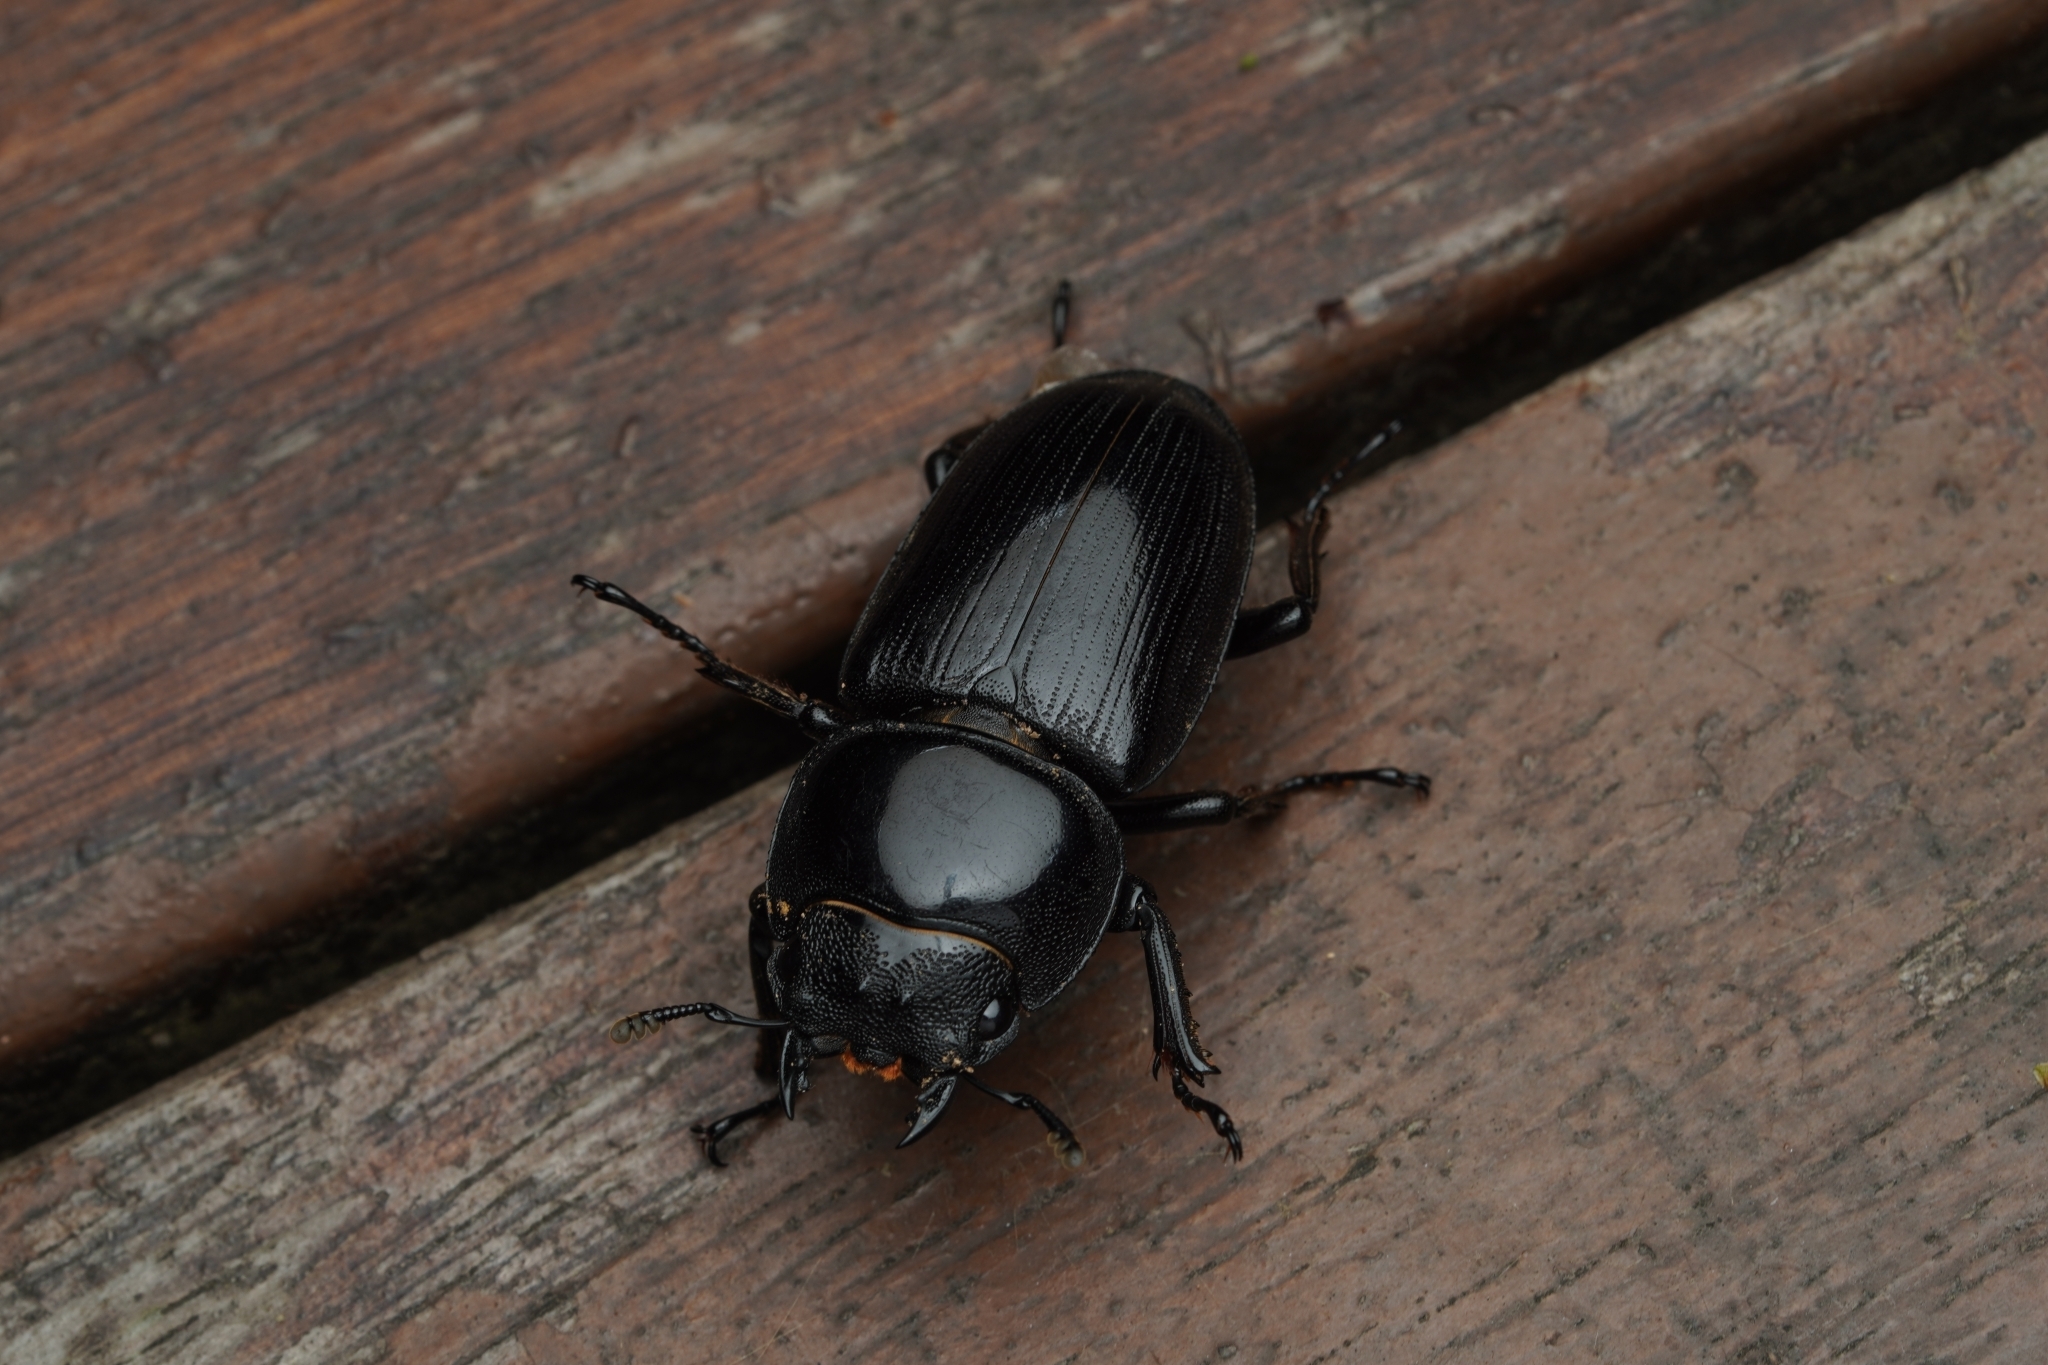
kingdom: Animalia
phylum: Arthropoda
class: Insecta
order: Coleoptera
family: Lucanidae
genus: Dorcus
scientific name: Dorcus hopei
